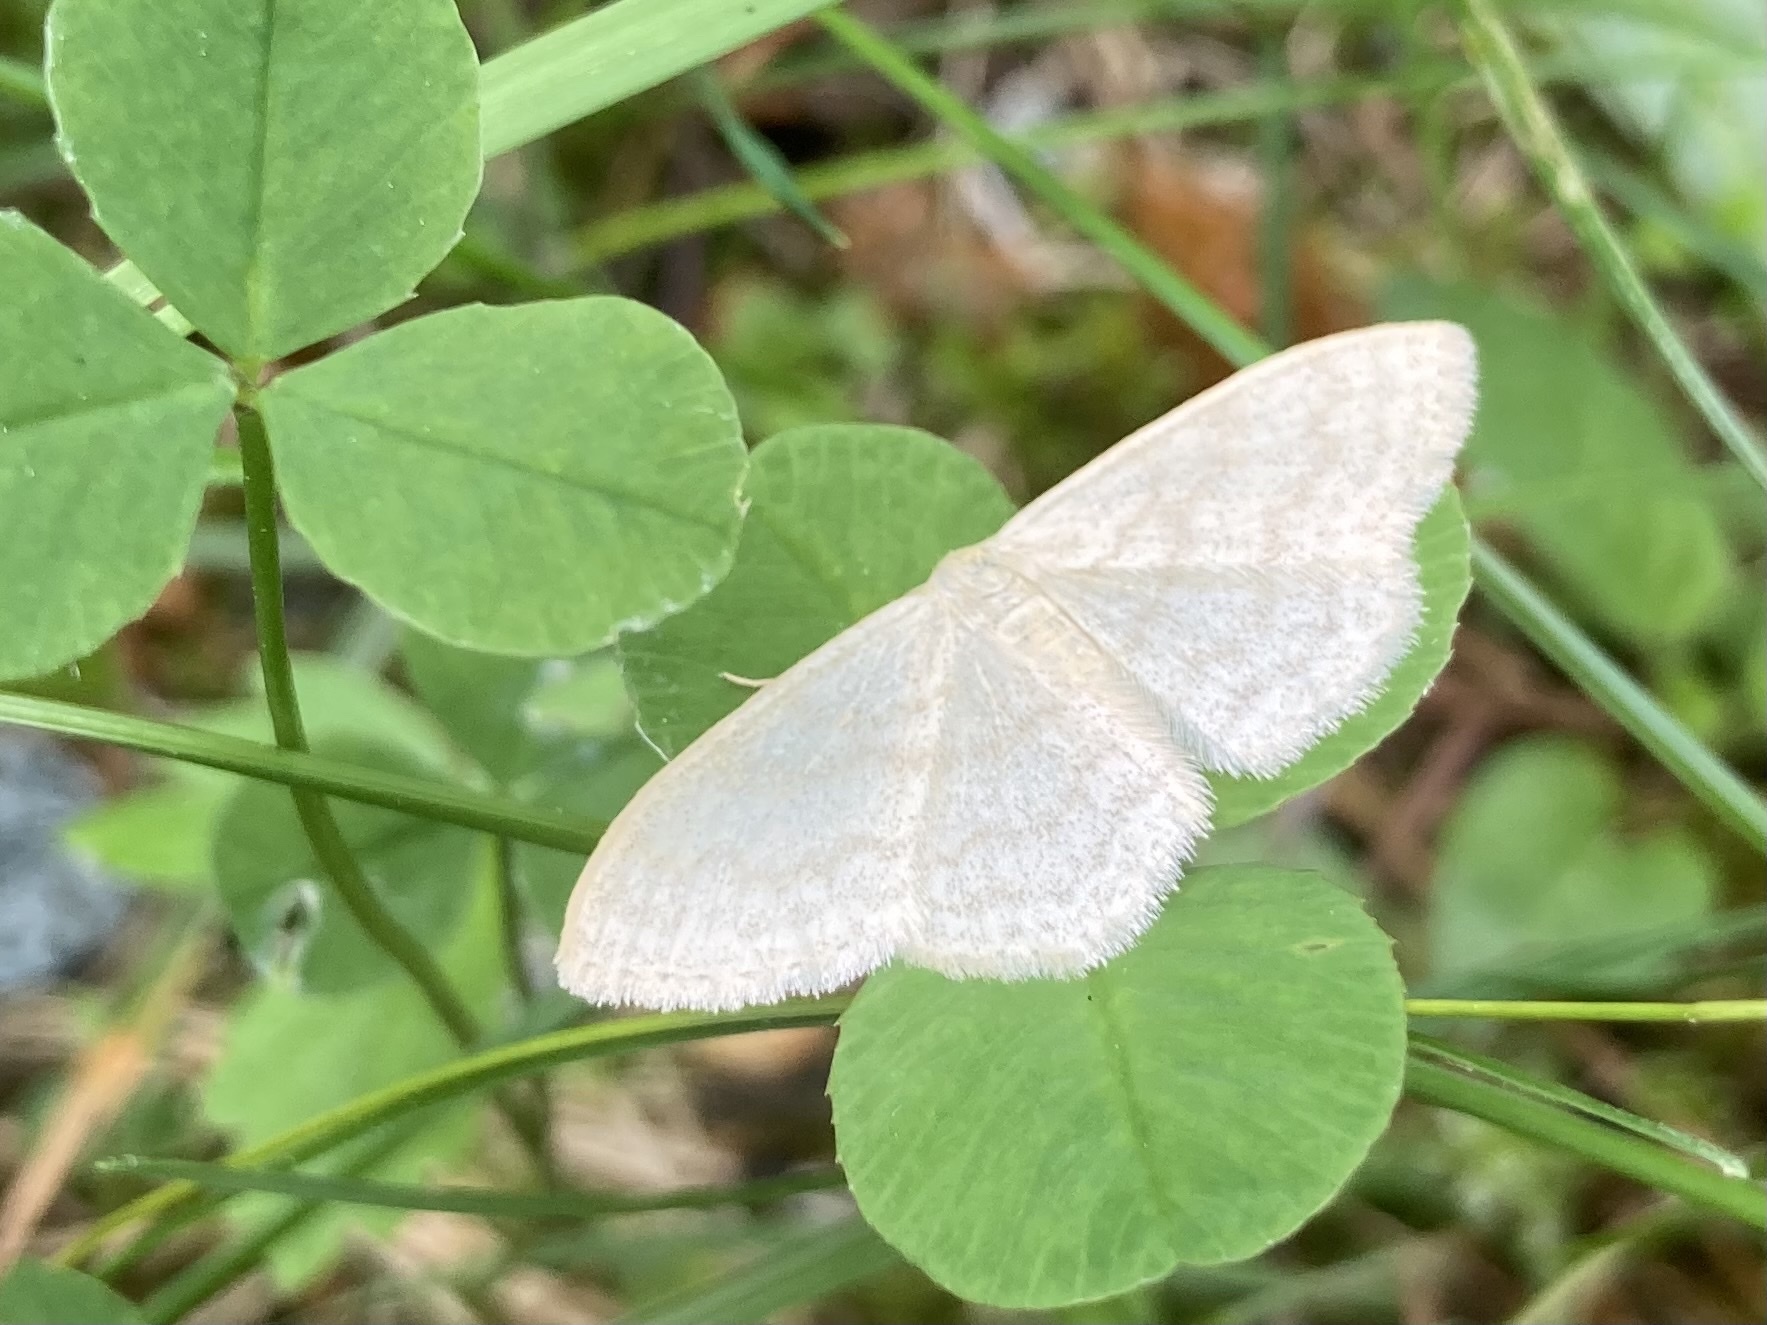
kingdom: Animalia
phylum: Arthropoda
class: Insecta
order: Lepidoptera
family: Geometridae
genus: Scopula
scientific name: Scopula floslactata
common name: Cream wave
